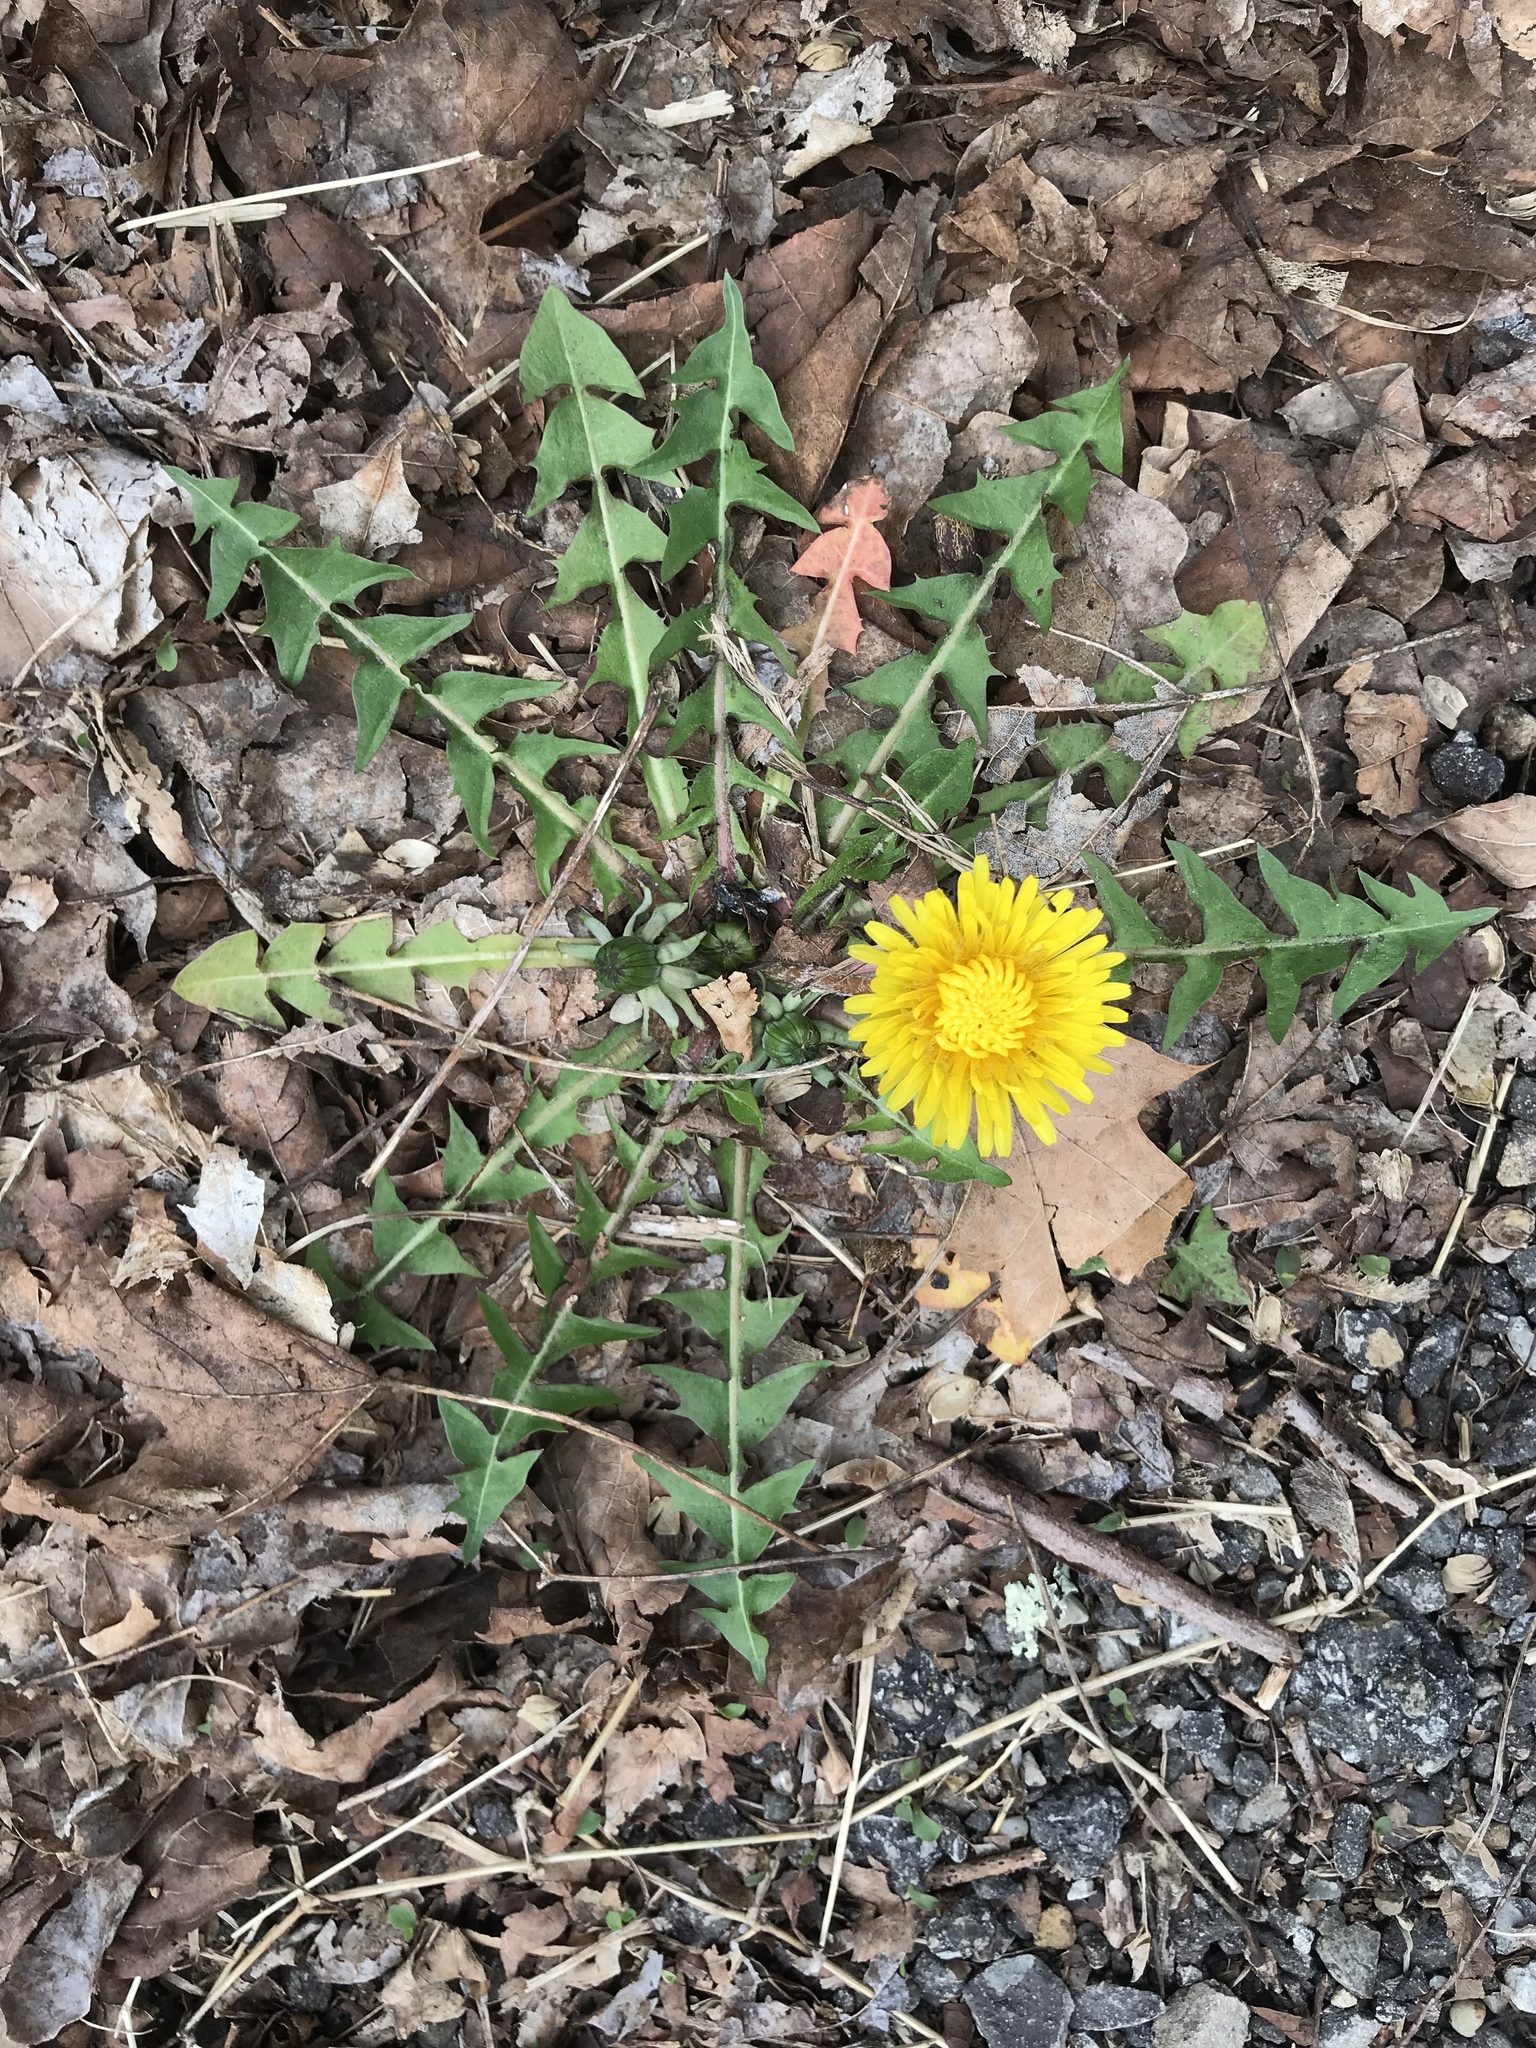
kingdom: Plantae
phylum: Tracheophyta
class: Magnoliopsida
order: Asterales
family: Asteraceae
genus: Taraxacum
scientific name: Taraxacum officinale
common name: Common dandelion
